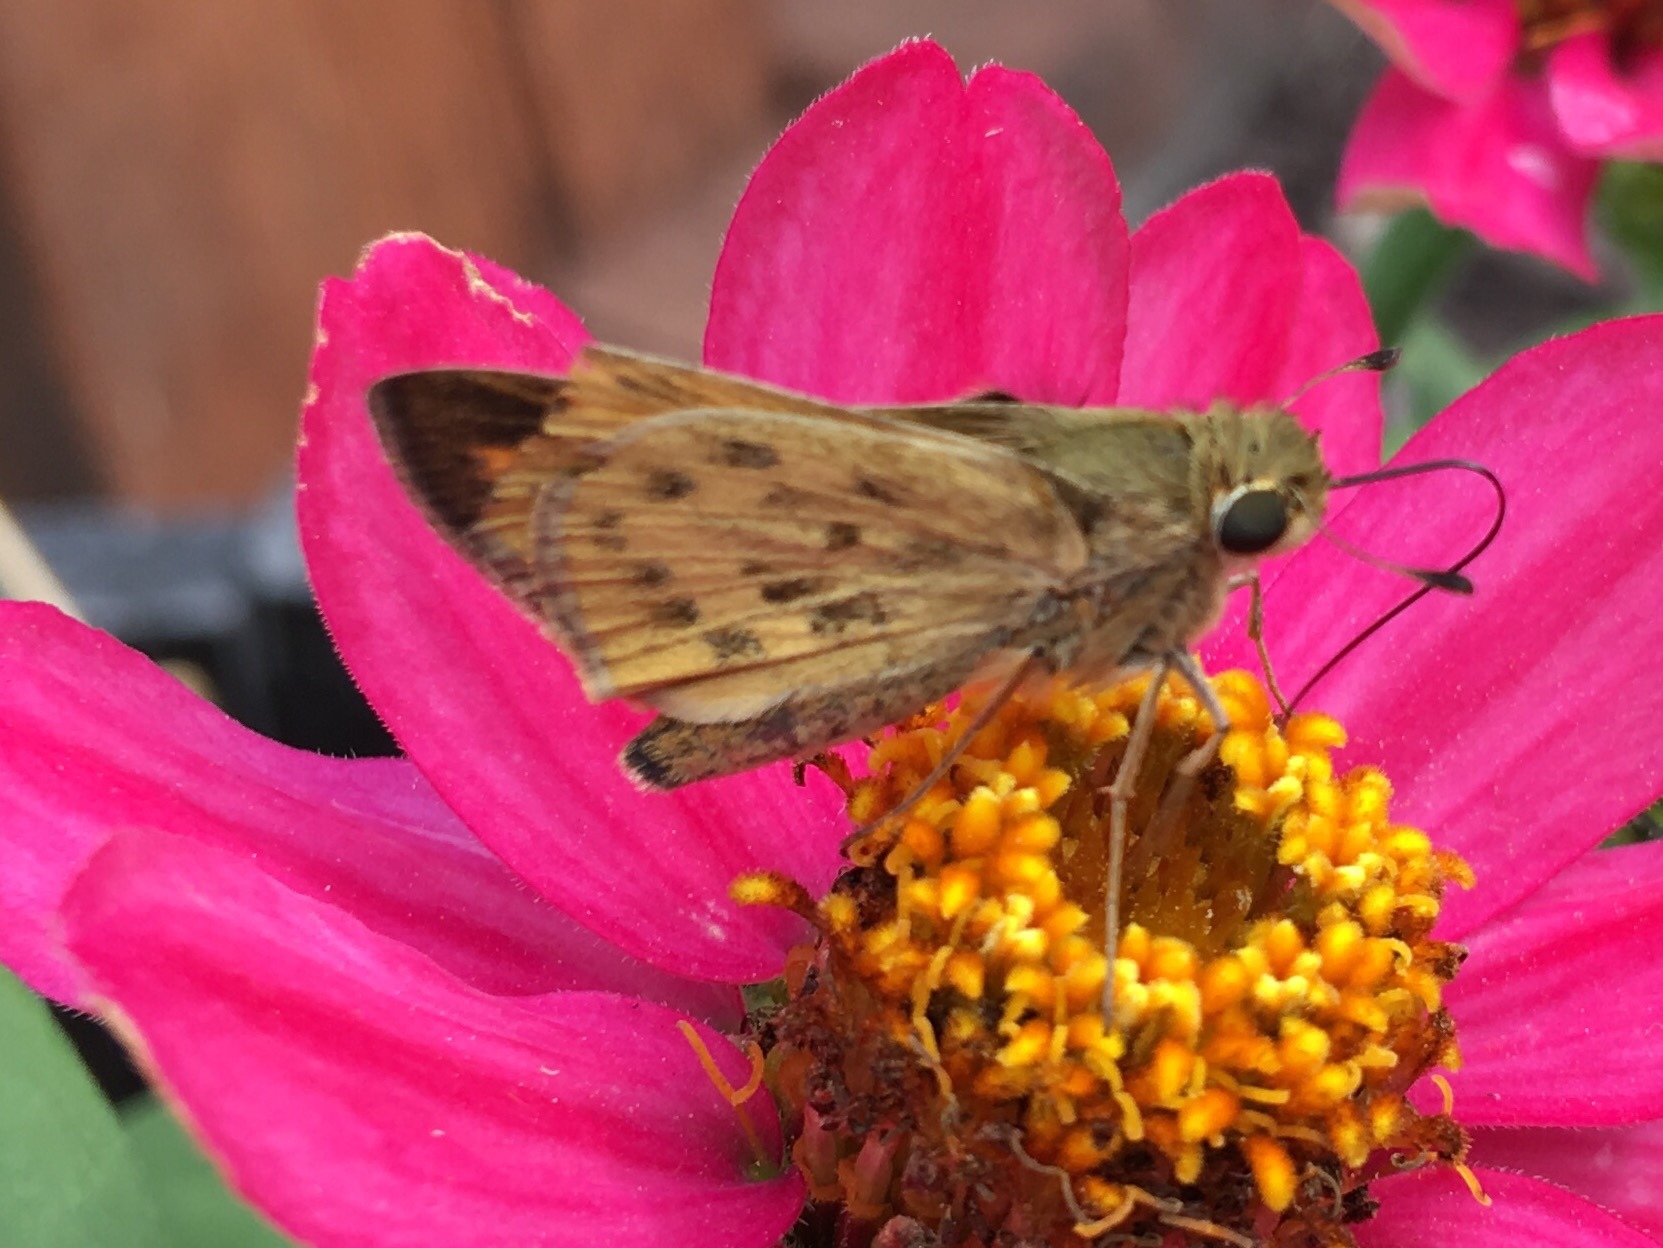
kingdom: Animalia
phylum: Arthropoda
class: Insecta
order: Lepidoptera
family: Hesperiidae
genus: Hylephila
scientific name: Hylephila phyleus
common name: Fiery skipper
